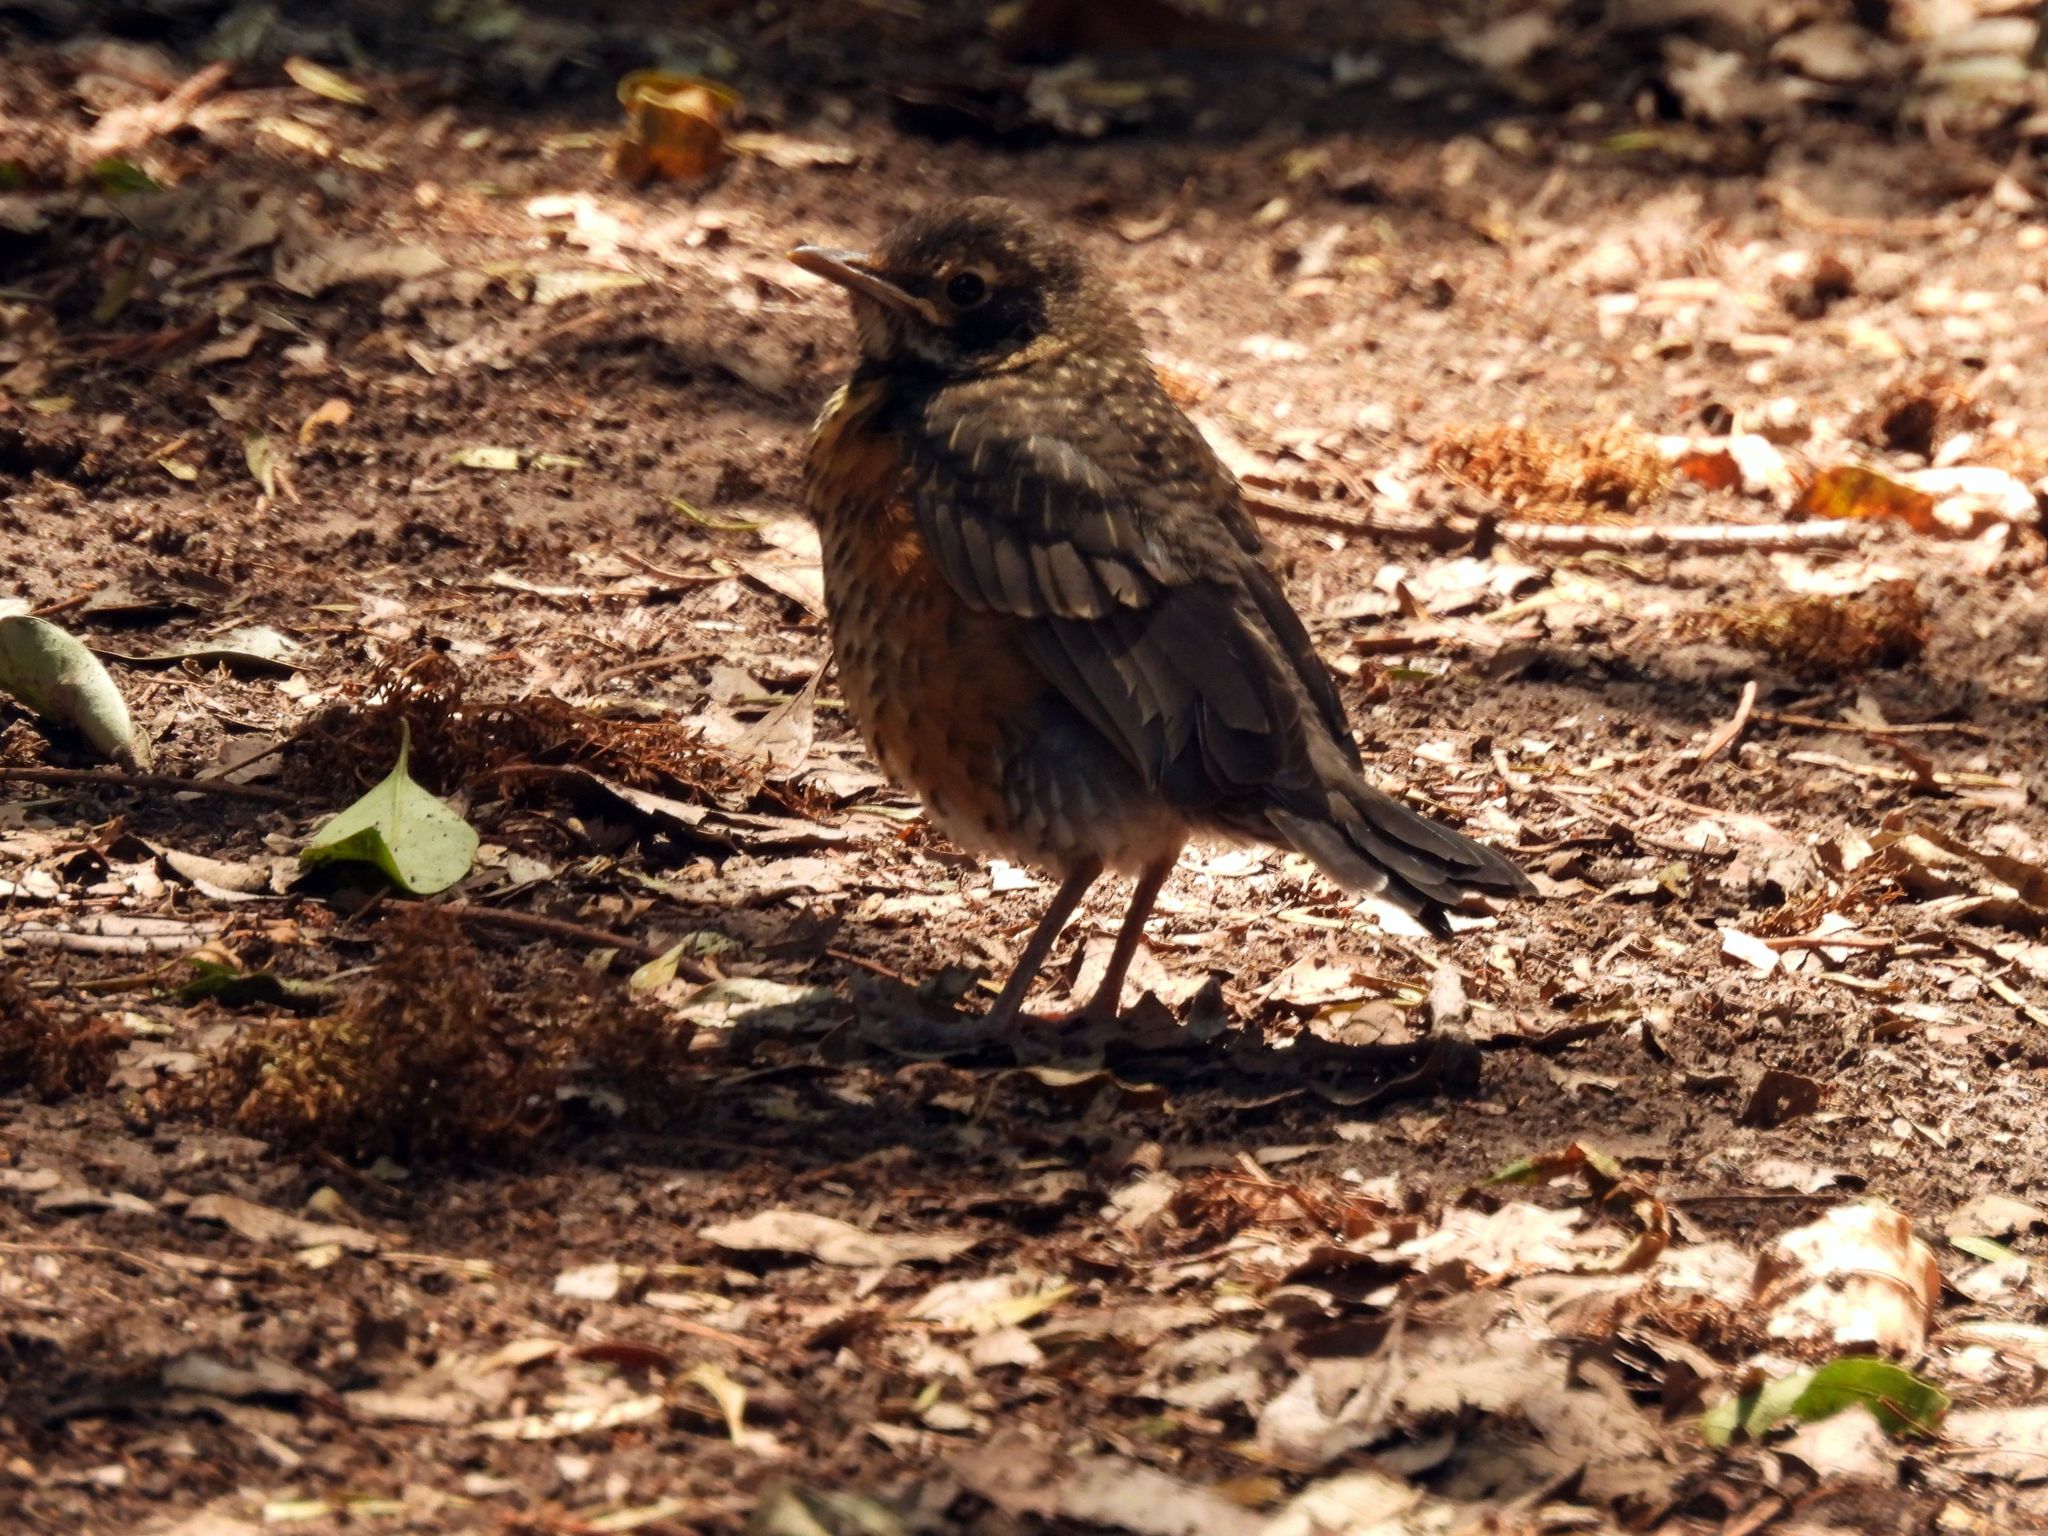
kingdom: Animalia
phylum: Chordata
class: Aves
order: Passeriformes
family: Turdidae
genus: Turdus
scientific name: Turdus migratorius
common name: American robin
